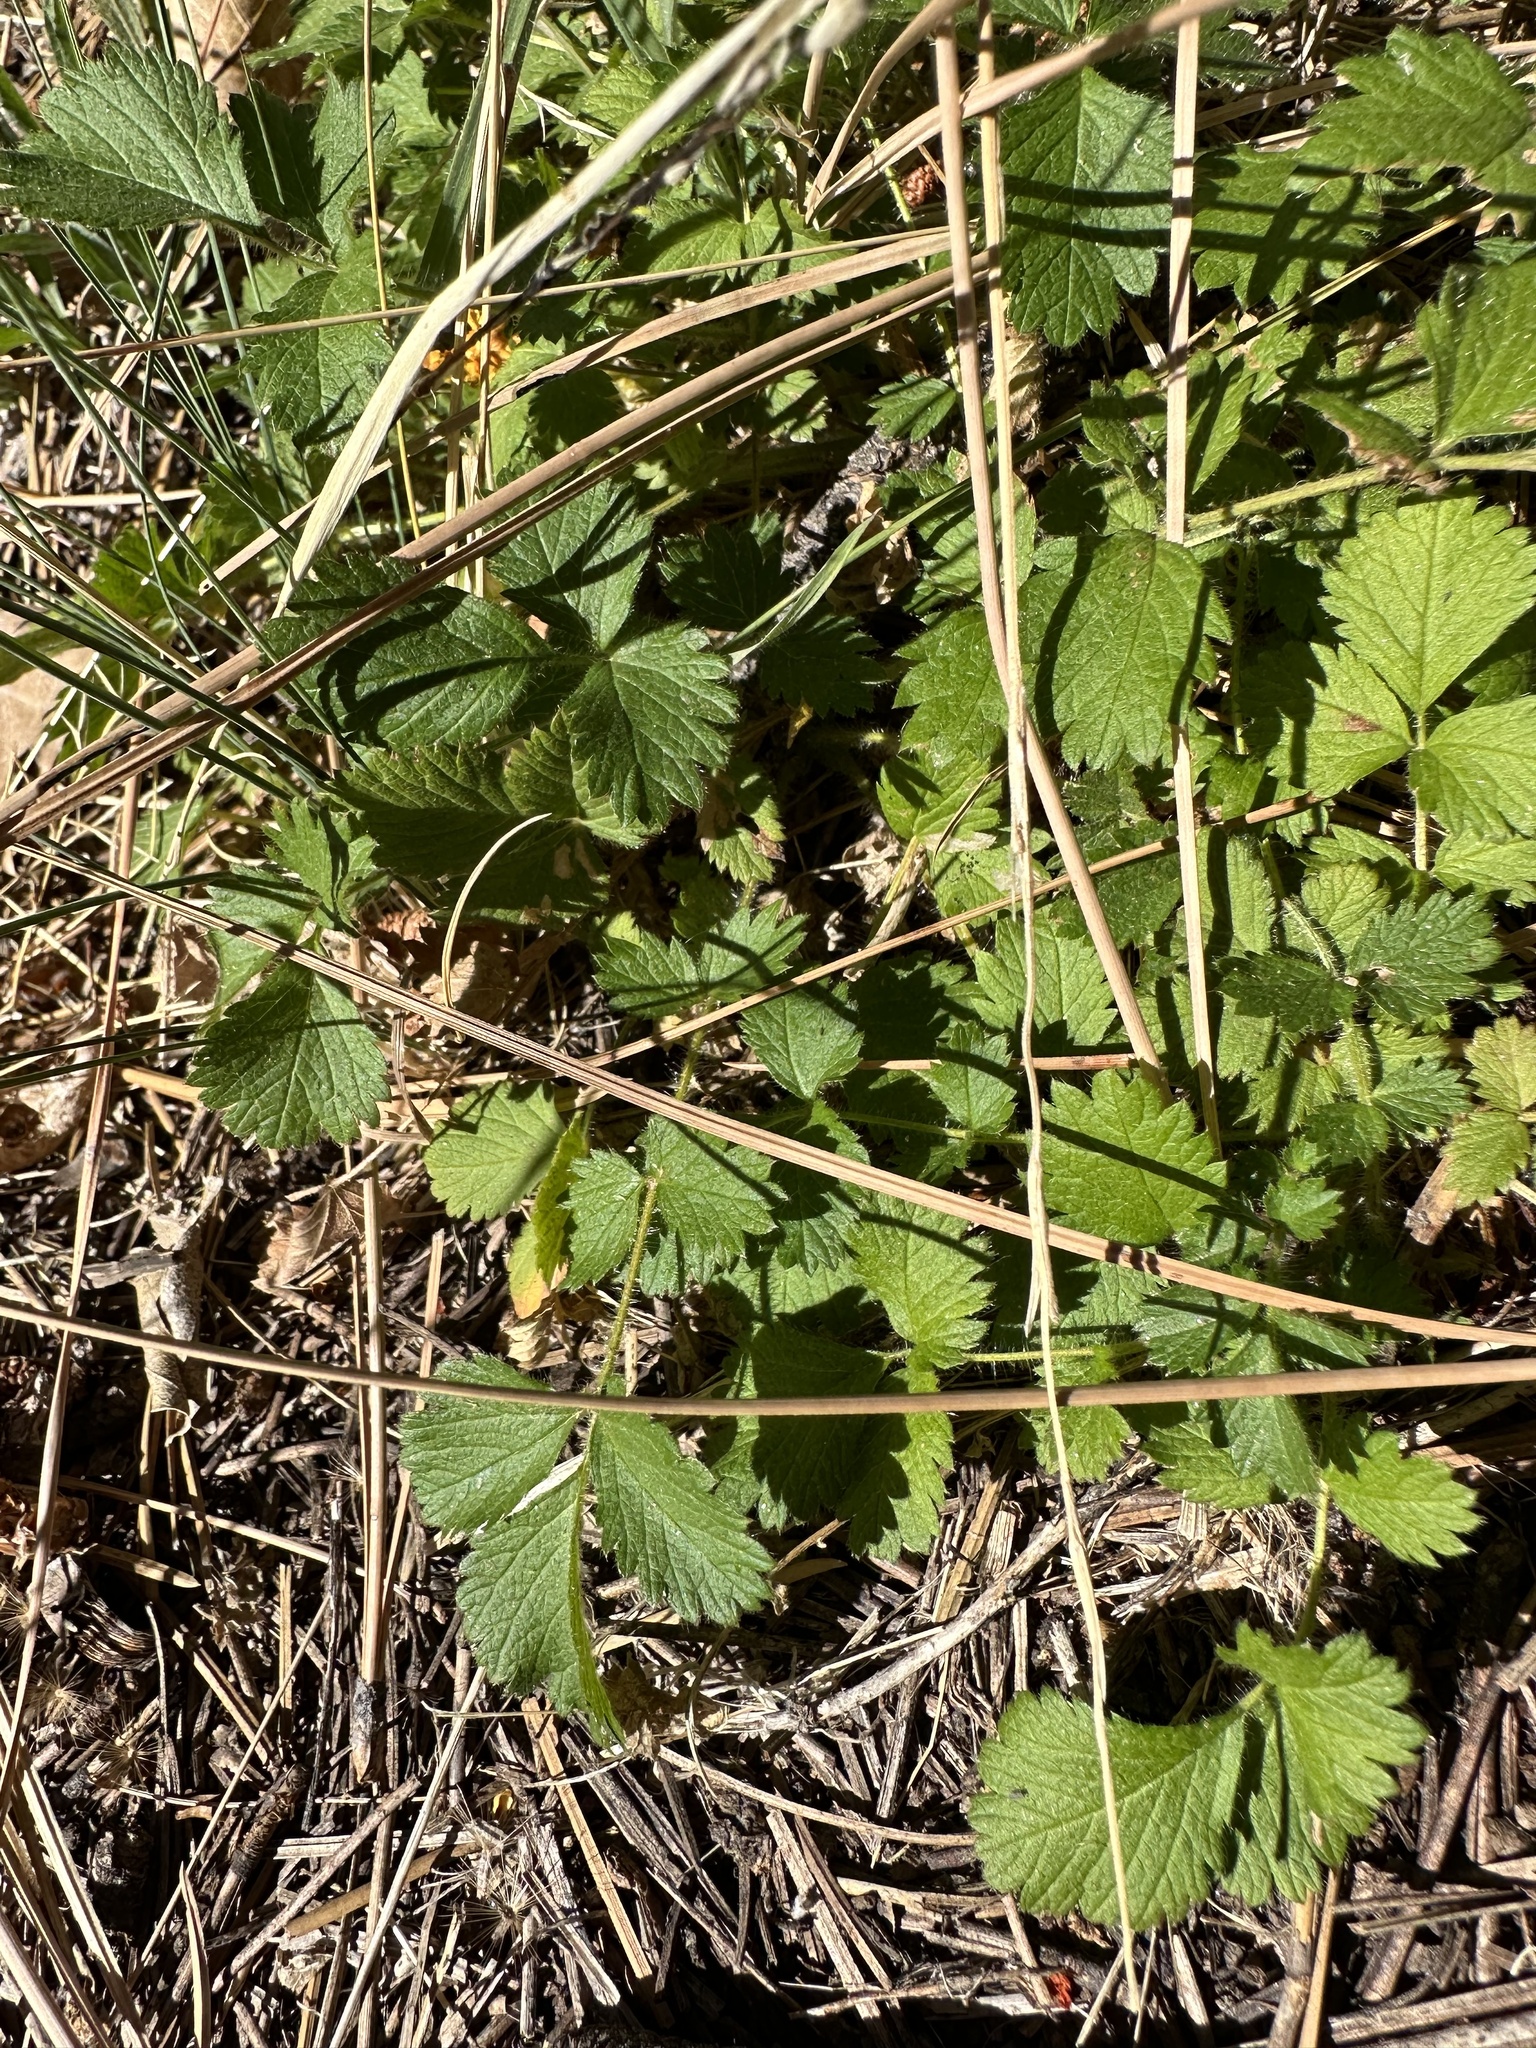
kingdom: Plantae
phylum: Tracheophyta
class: Magnoliopsida
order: Rosales
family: Rosaceae
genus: Drymocallis
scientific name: Drymocallis glandulosa
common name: Sticky cinquefoil
